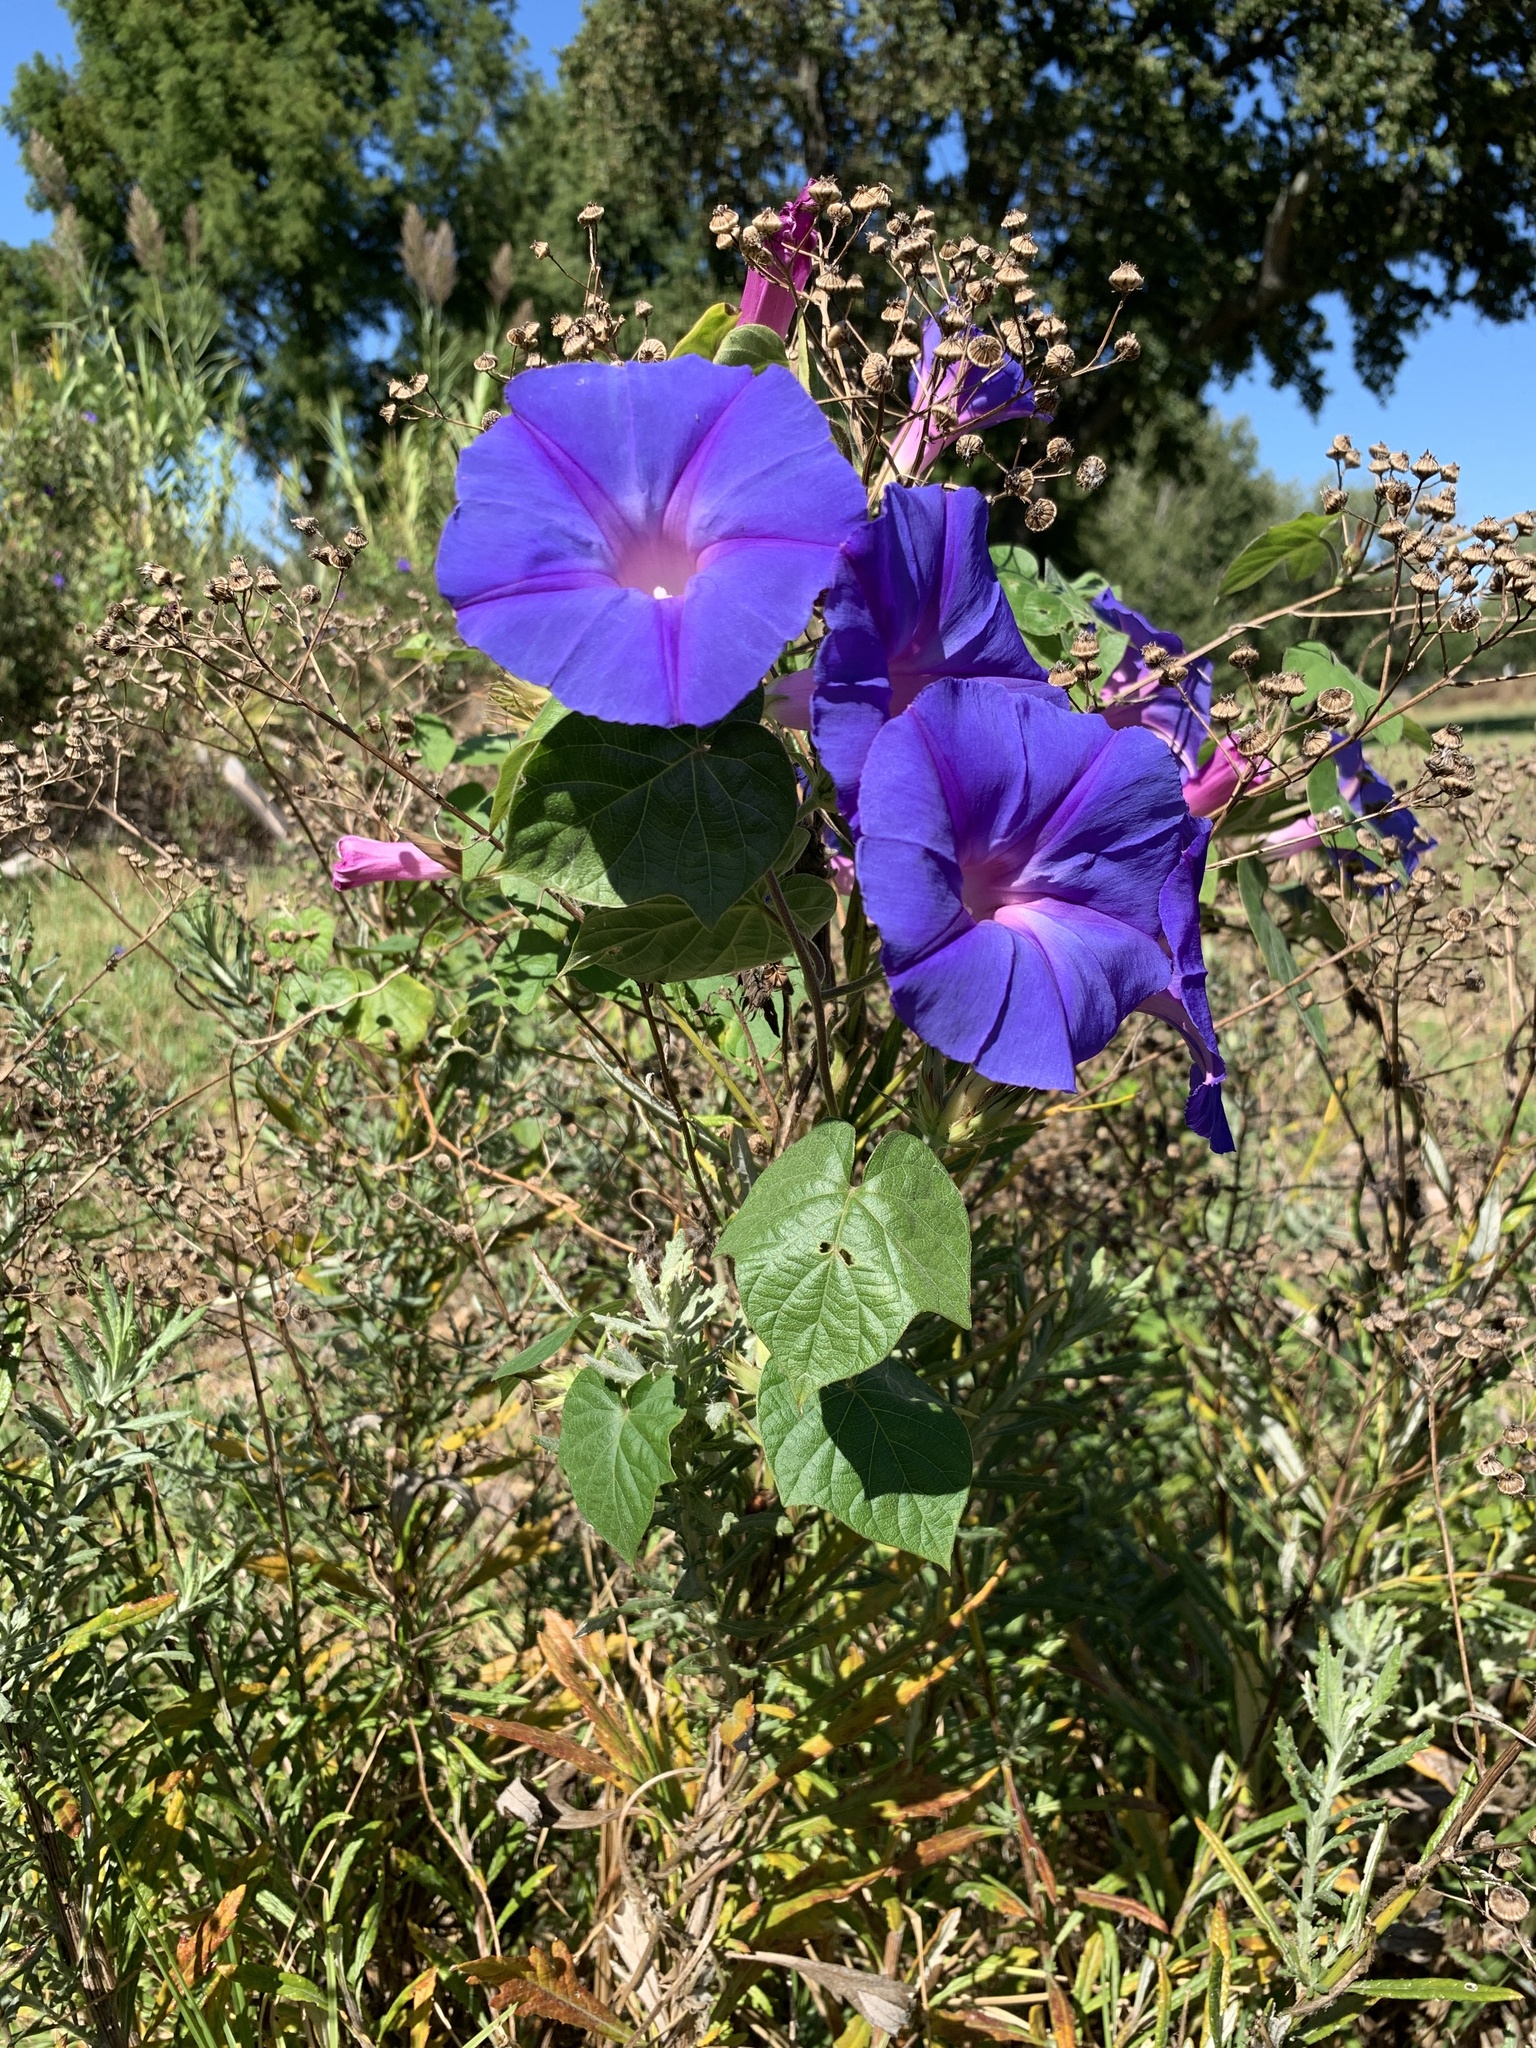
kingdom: Plantae
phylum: Tracheophyta
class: Magnoliopsida
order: Solanales
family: Convolvulaceae
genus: Ipomoea
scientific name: Ipomoea indica
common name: Blue dawnflower
